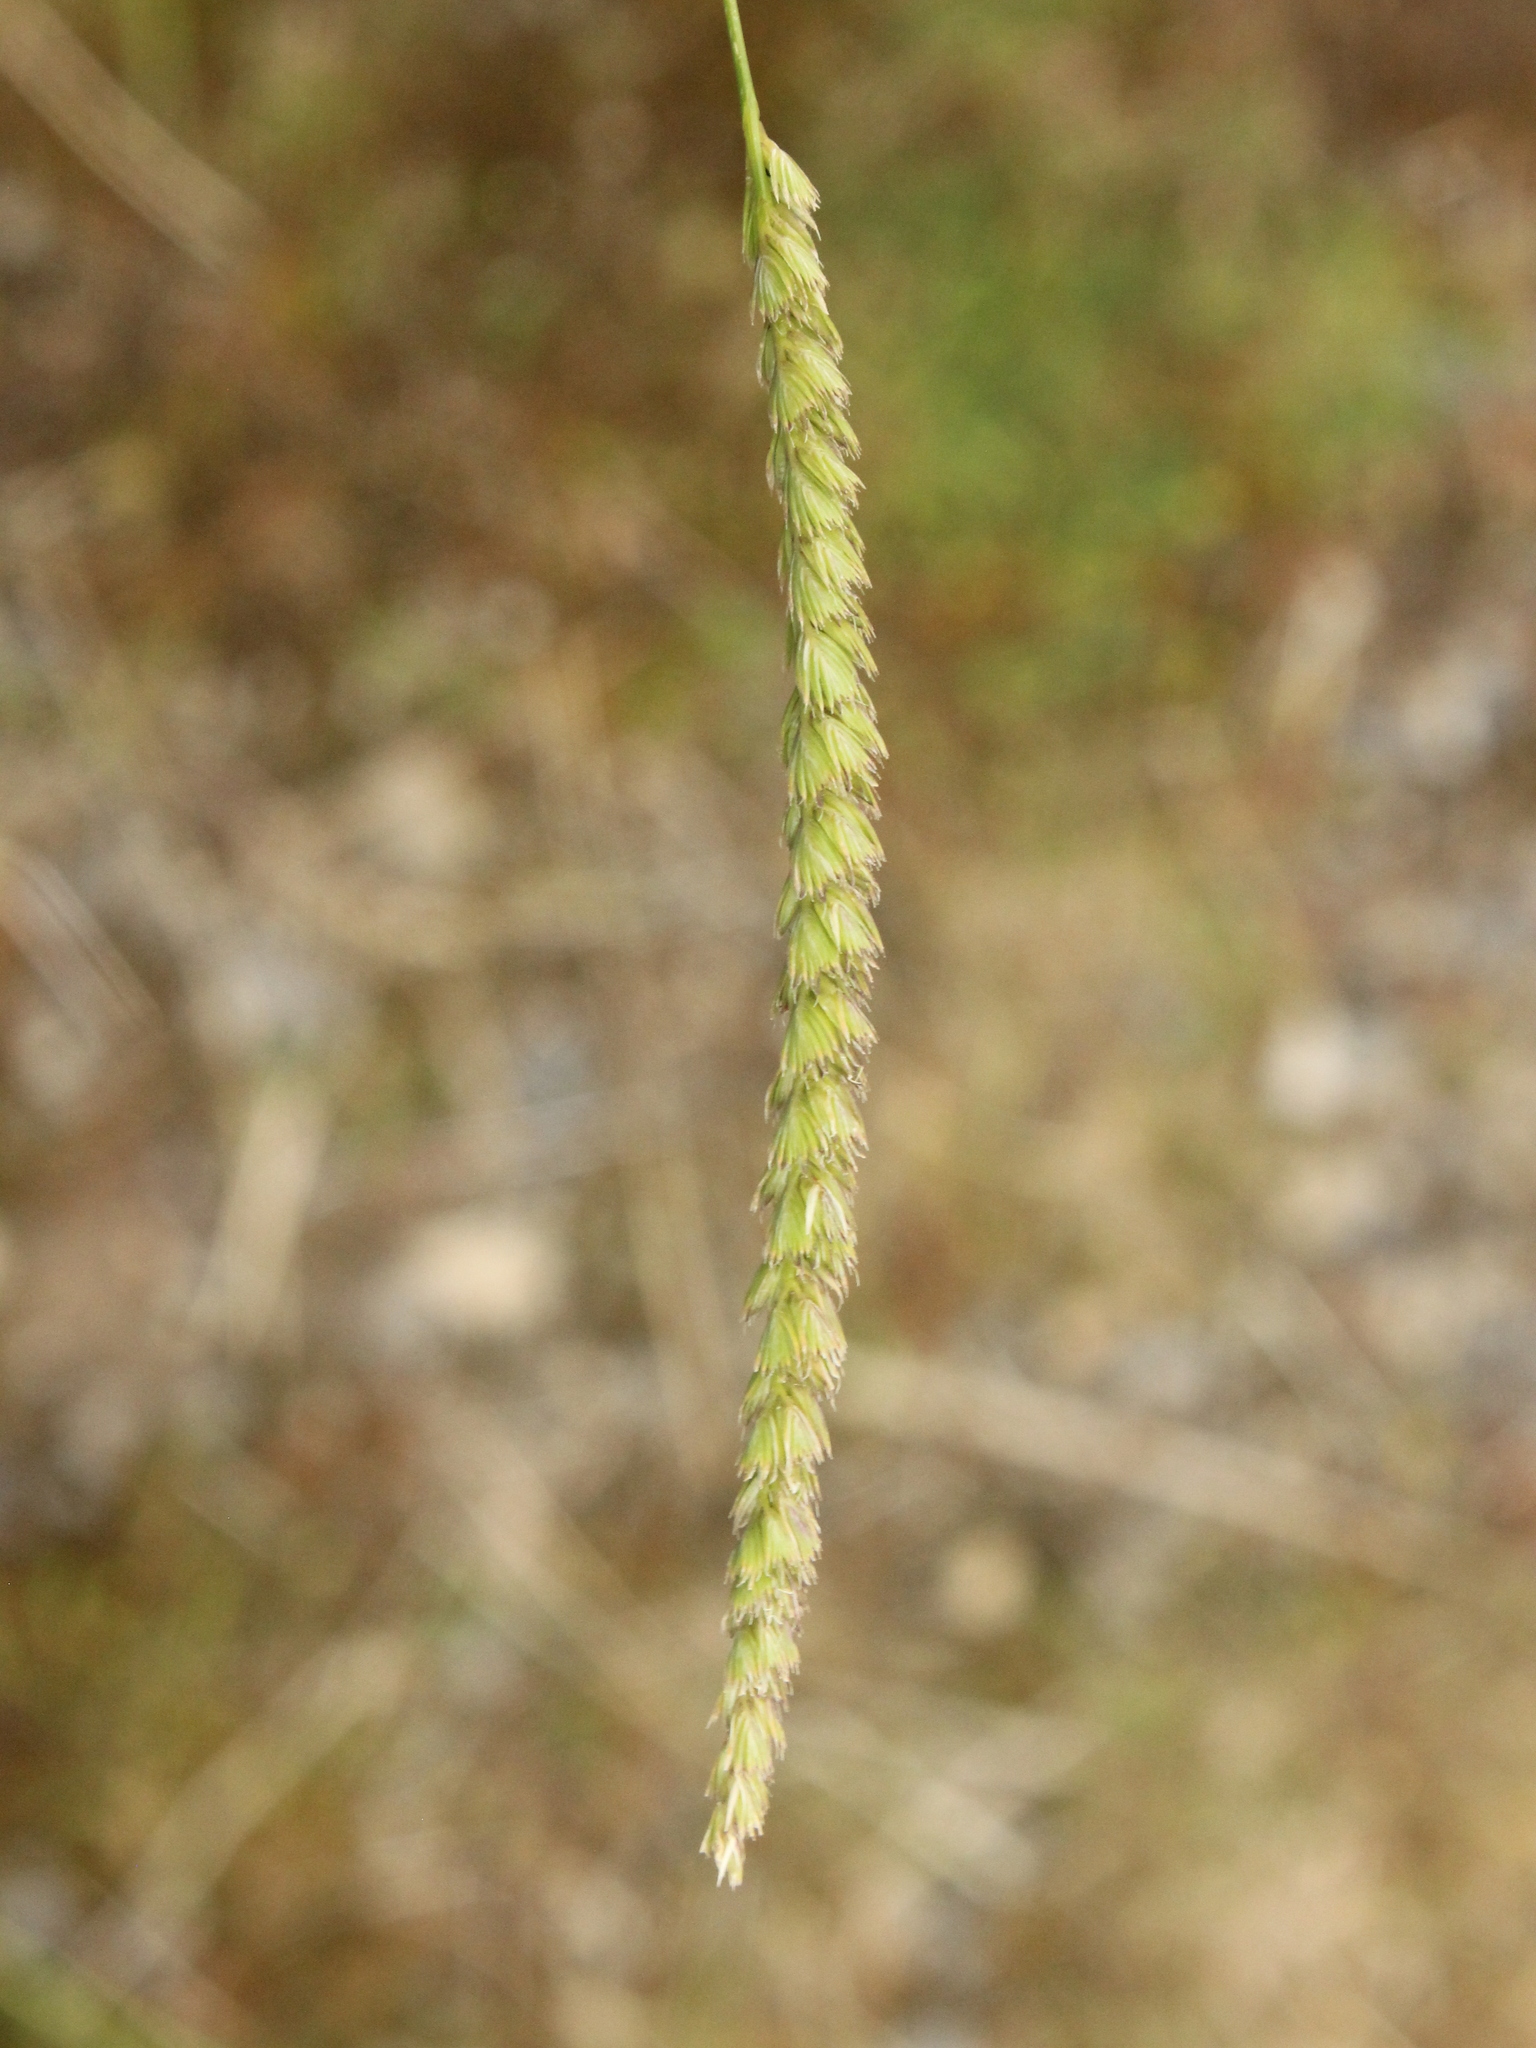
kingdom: Plantae
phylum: Tracheophyta
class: Liliopsida
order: Poales
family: Poaceae
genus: Cynosurus
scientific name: Cynosurus cristatus
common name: Crested dog's-tail
